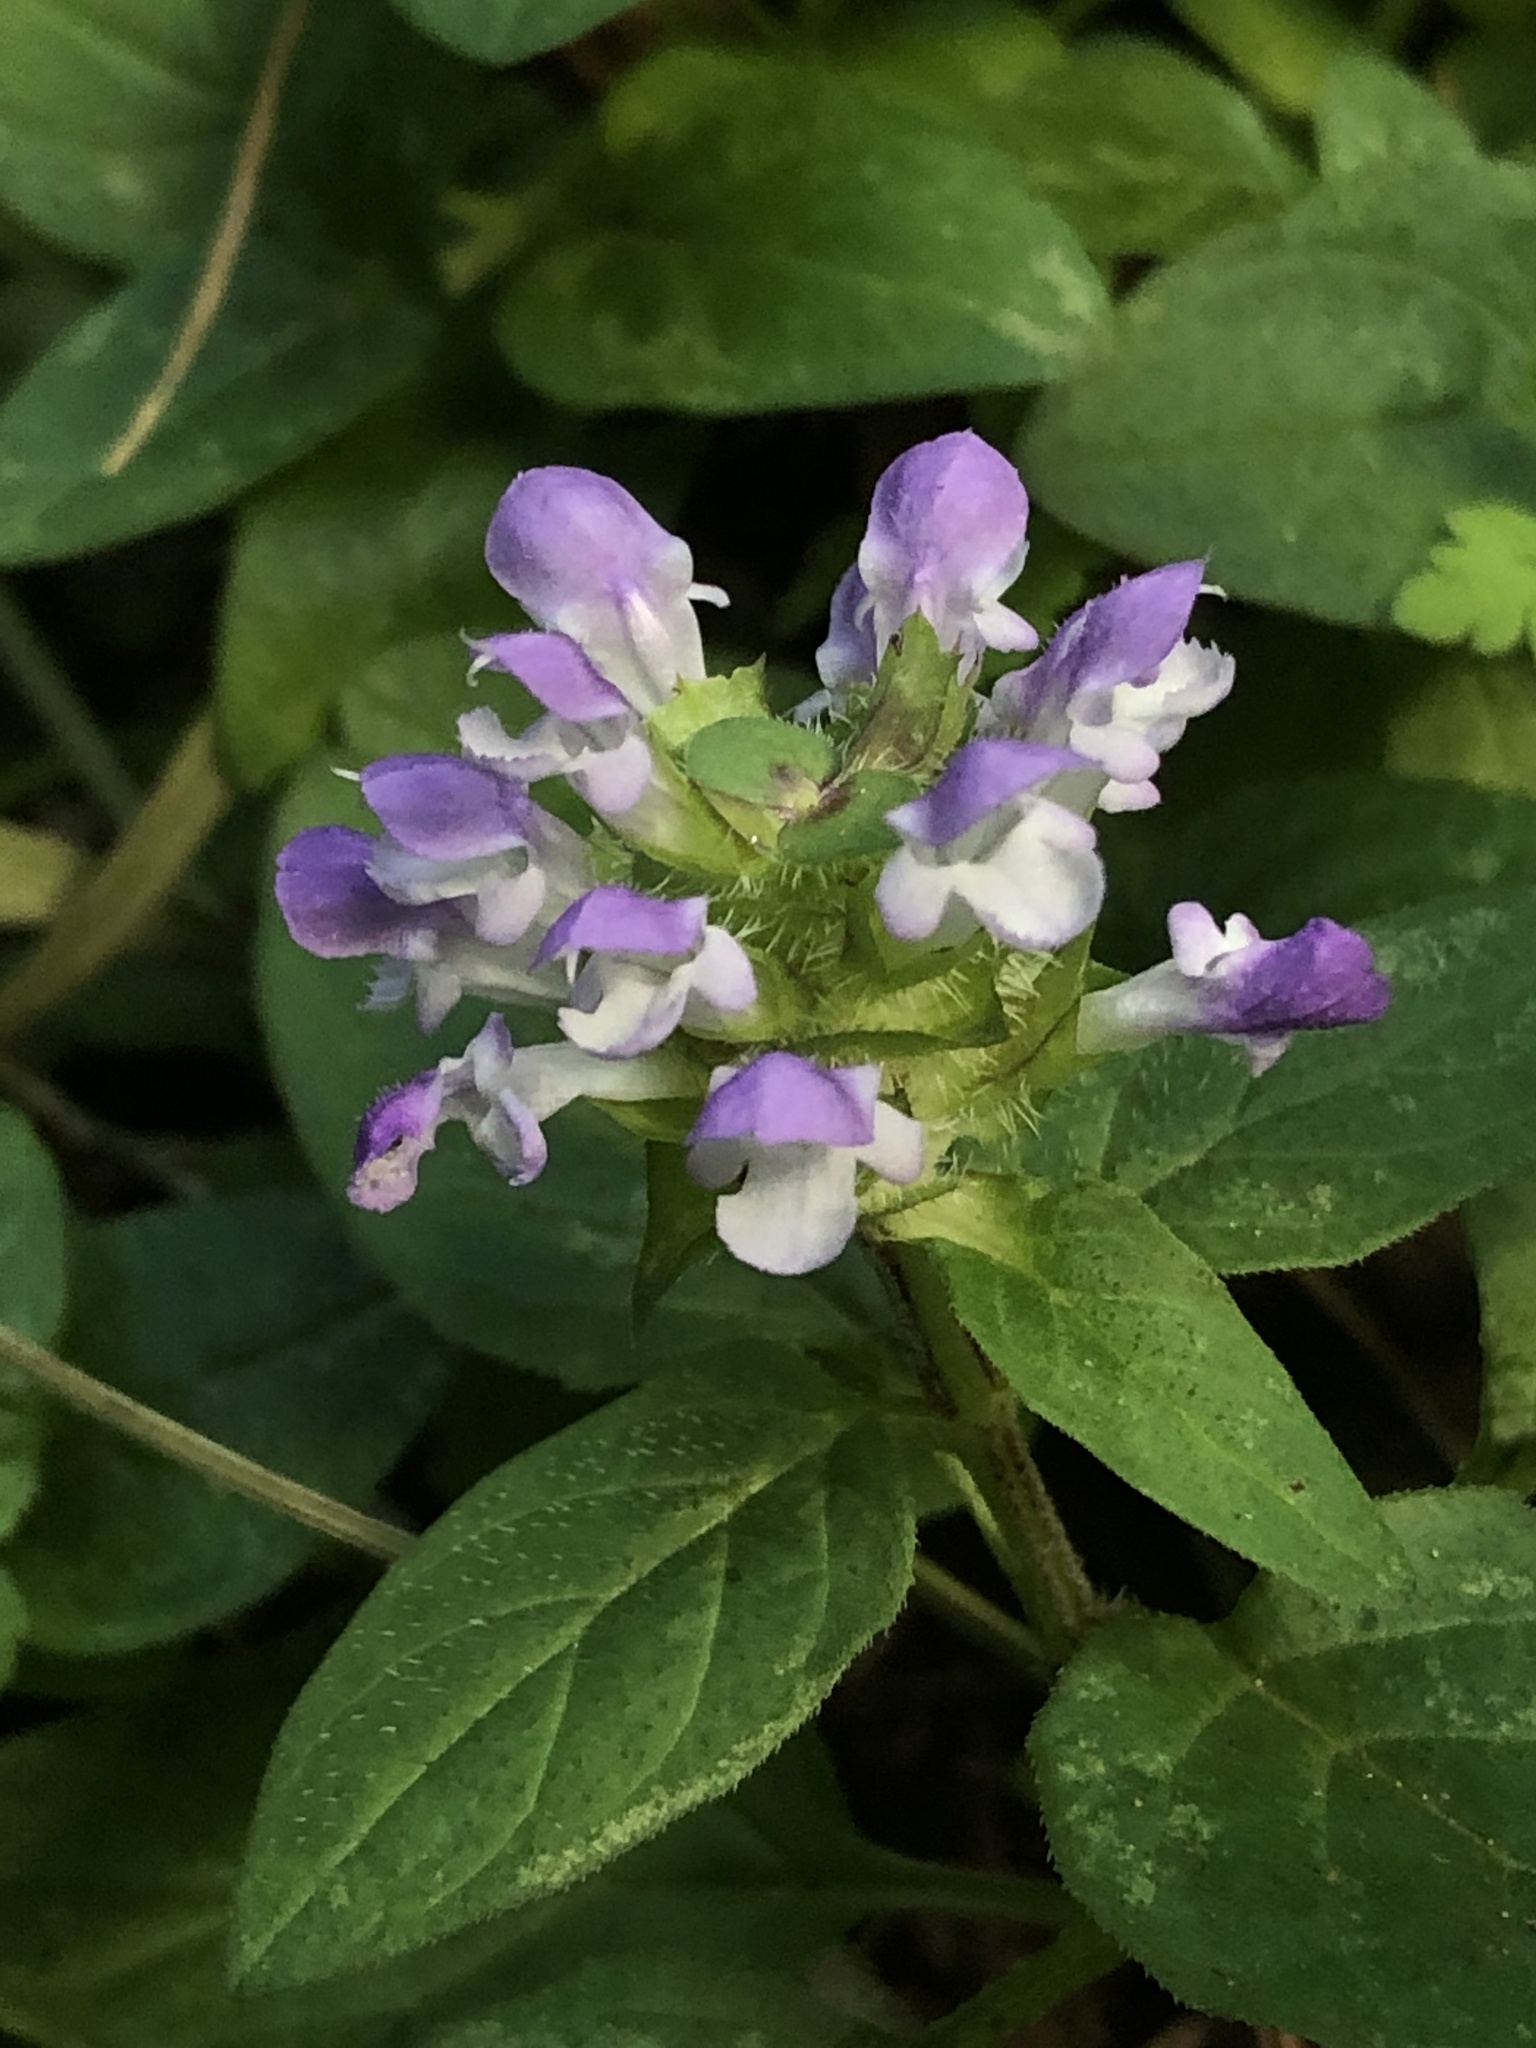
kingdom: Plantae
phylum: Tracheophyta
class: Magnoliopsida
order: Lamiales
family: Lamiaceae
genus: Prunella
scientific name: Prunella vulgaris
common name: Heal-all
